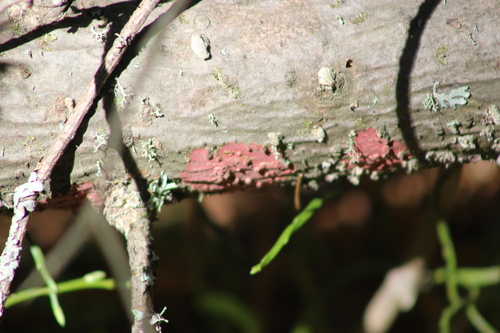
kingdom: Fungi
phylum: Basidiomycota
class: Agaricomycetes
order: Hymenochaetales
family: Hymenochaetaceae
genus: Hymenochaete
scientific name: Hymenochaete cruenta
